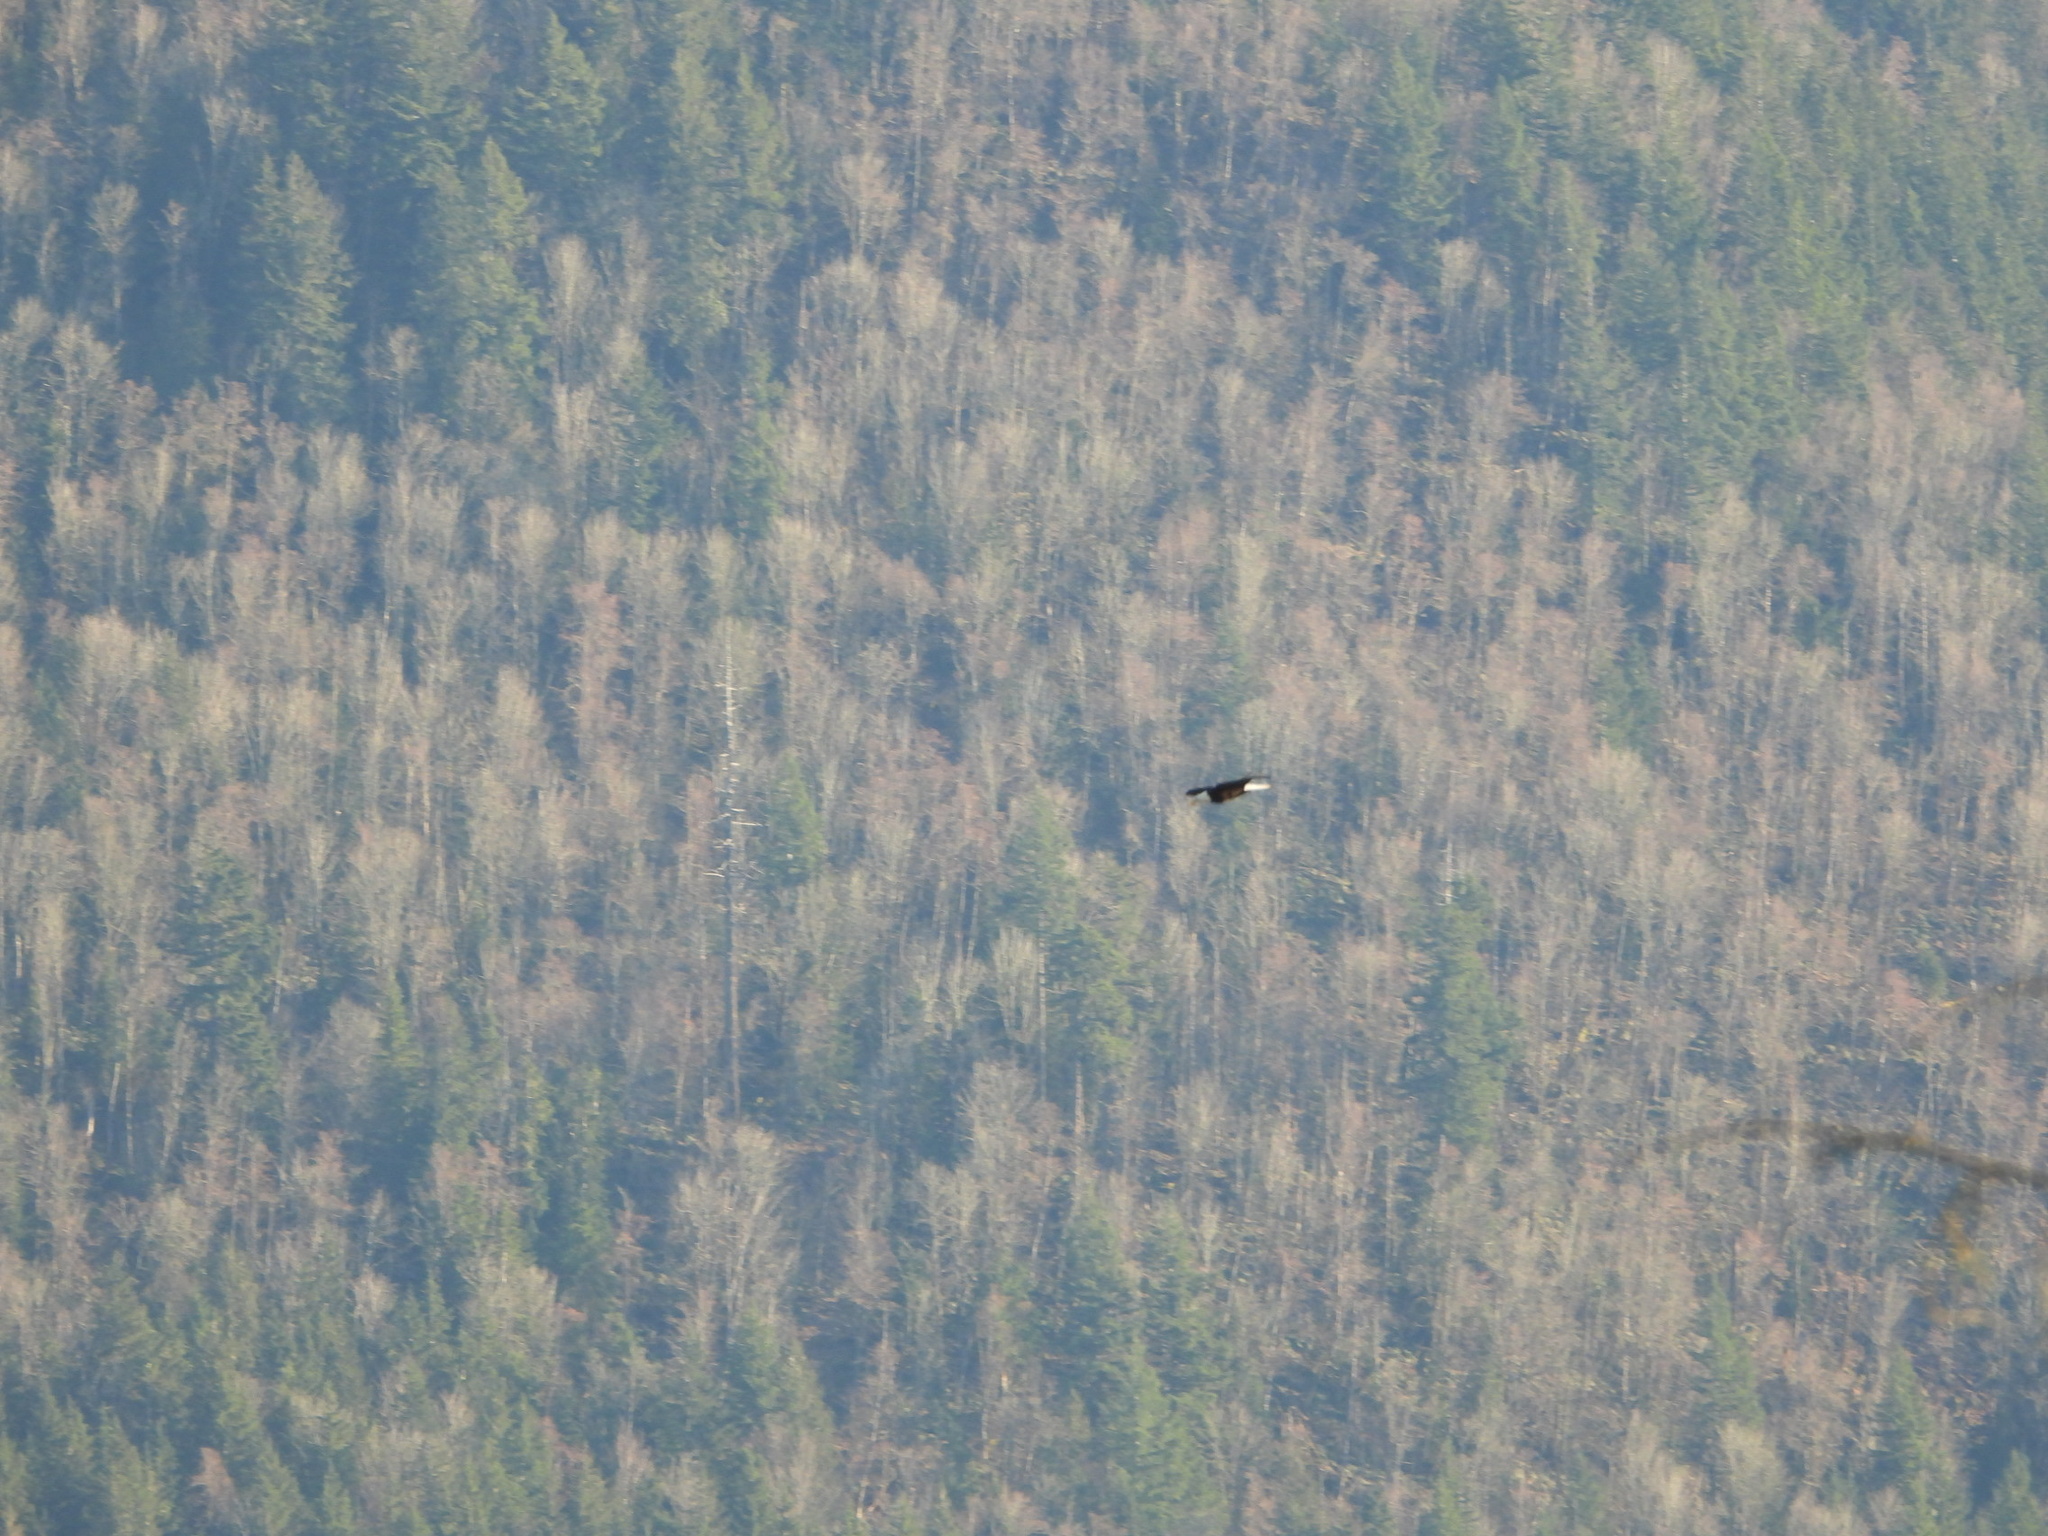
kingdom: Animalia
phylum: Chordata
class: Aves
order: Accipitriformes
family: Accipitridae
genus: Haliaeetus
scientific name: Haliaeetus leucocephalus
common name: Bald eagle
